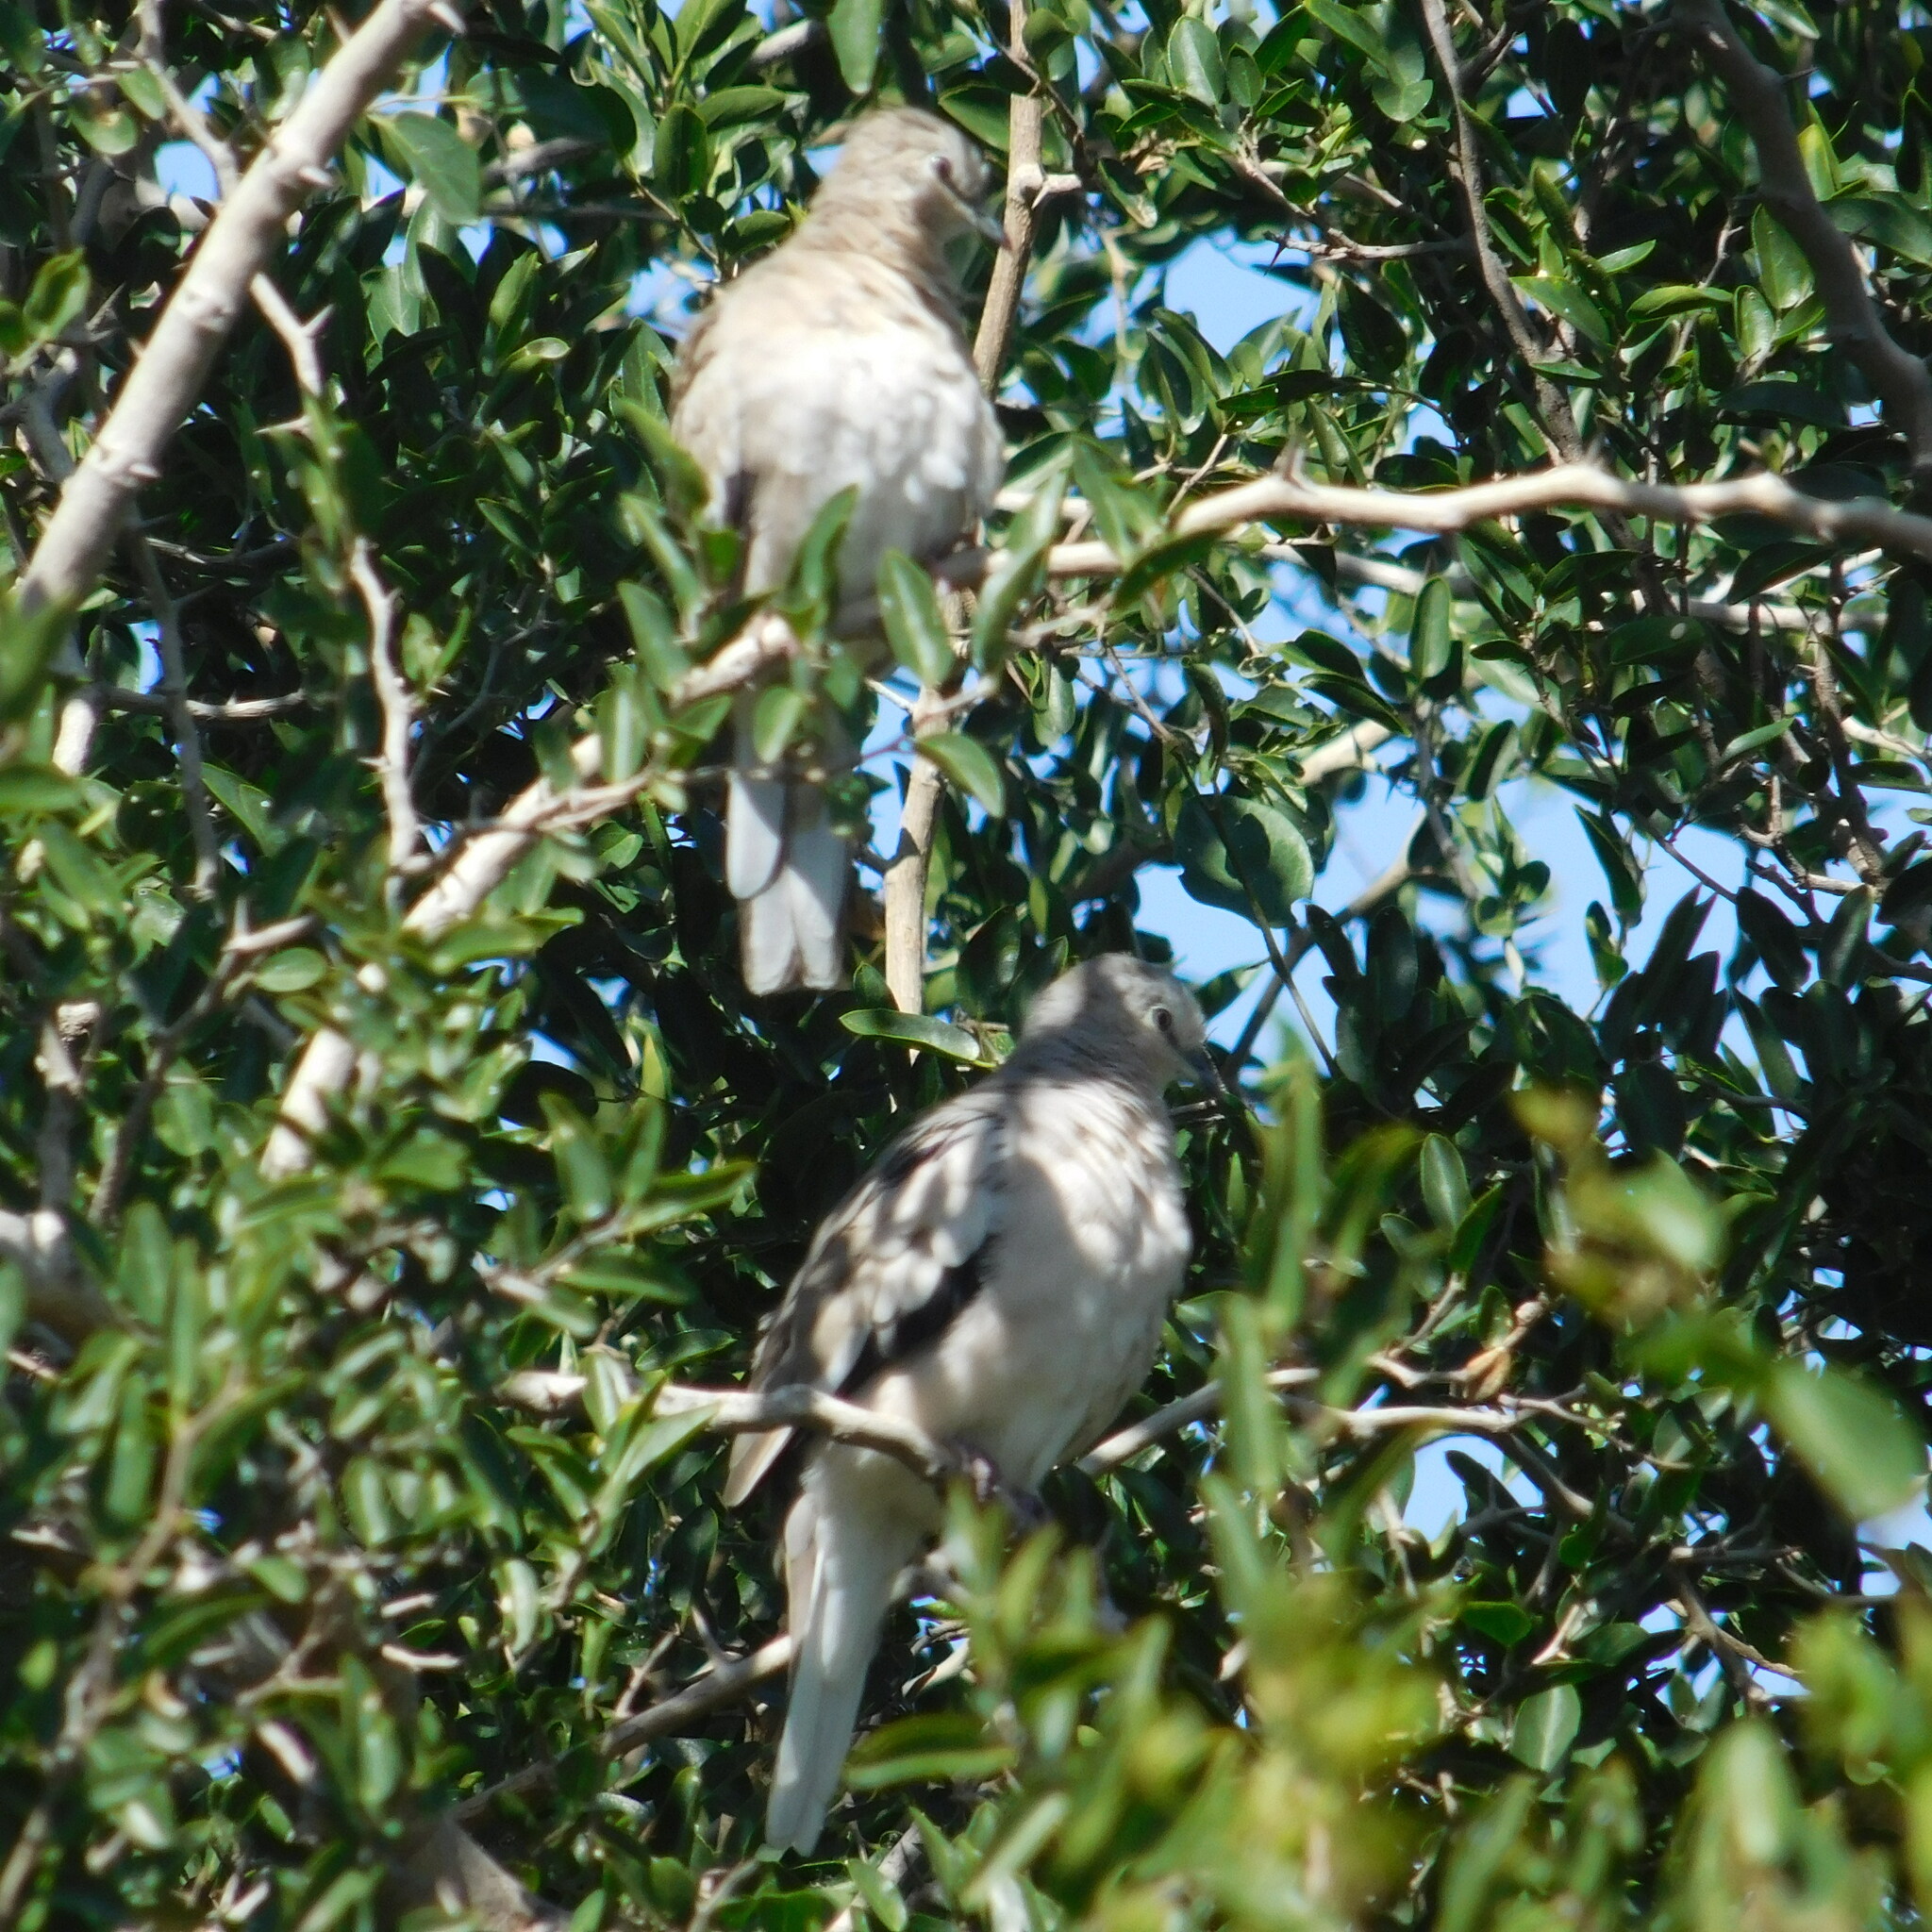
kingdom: Animalia
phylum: Chordata
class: Aves
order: Columbiformes
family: Columbidae
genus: Columbina
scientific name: Columbina picui
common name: Picui ground dove
